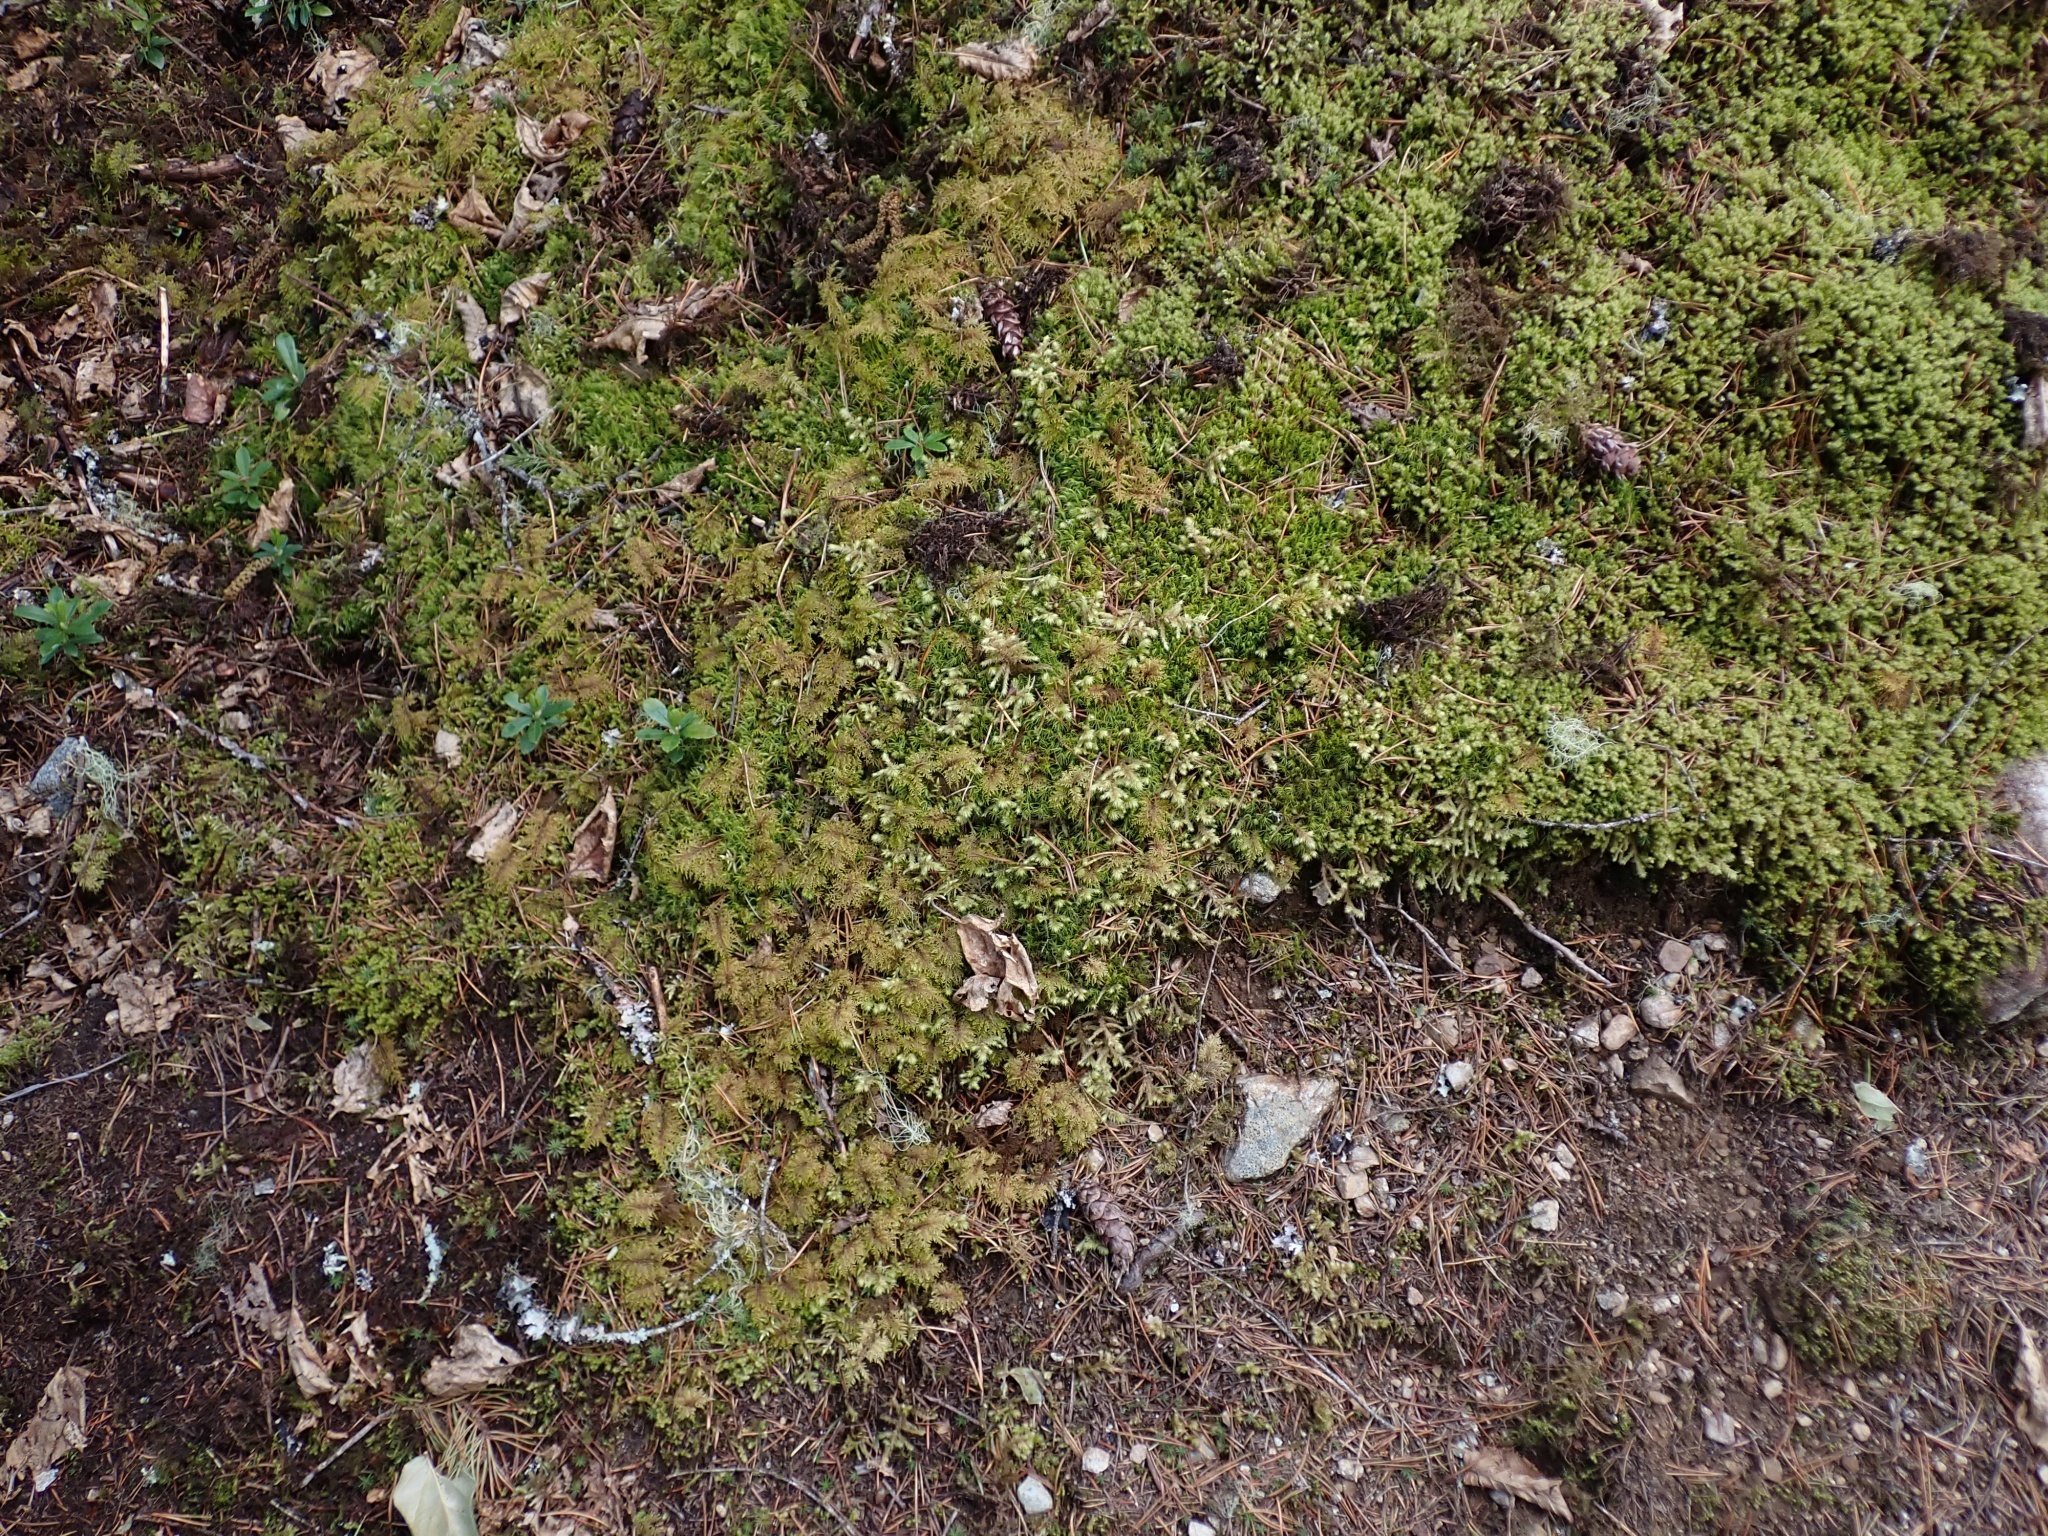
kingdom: Plantae
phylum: Bryophyta
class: Bryopsida
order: Hypnales
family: Hylocomiaceae
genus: Hylocomium
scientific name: Hylocomium splendens
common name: Stairstep moss
